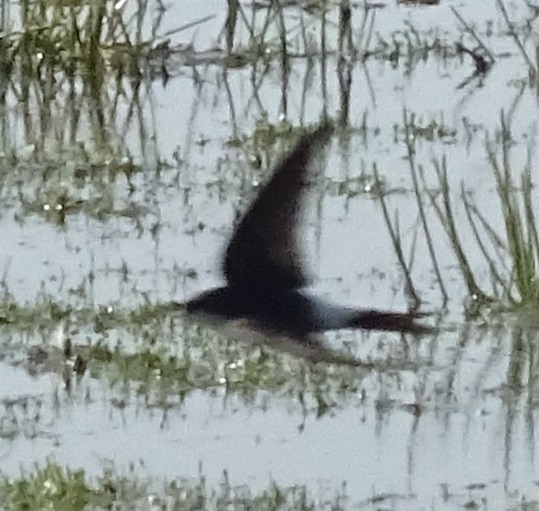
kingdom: Animalia
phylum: Chordata
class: Aves
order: Passeriformes
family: Hirundinidae
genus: Delichon
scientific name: Delichon urbicum
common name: Common house martin
